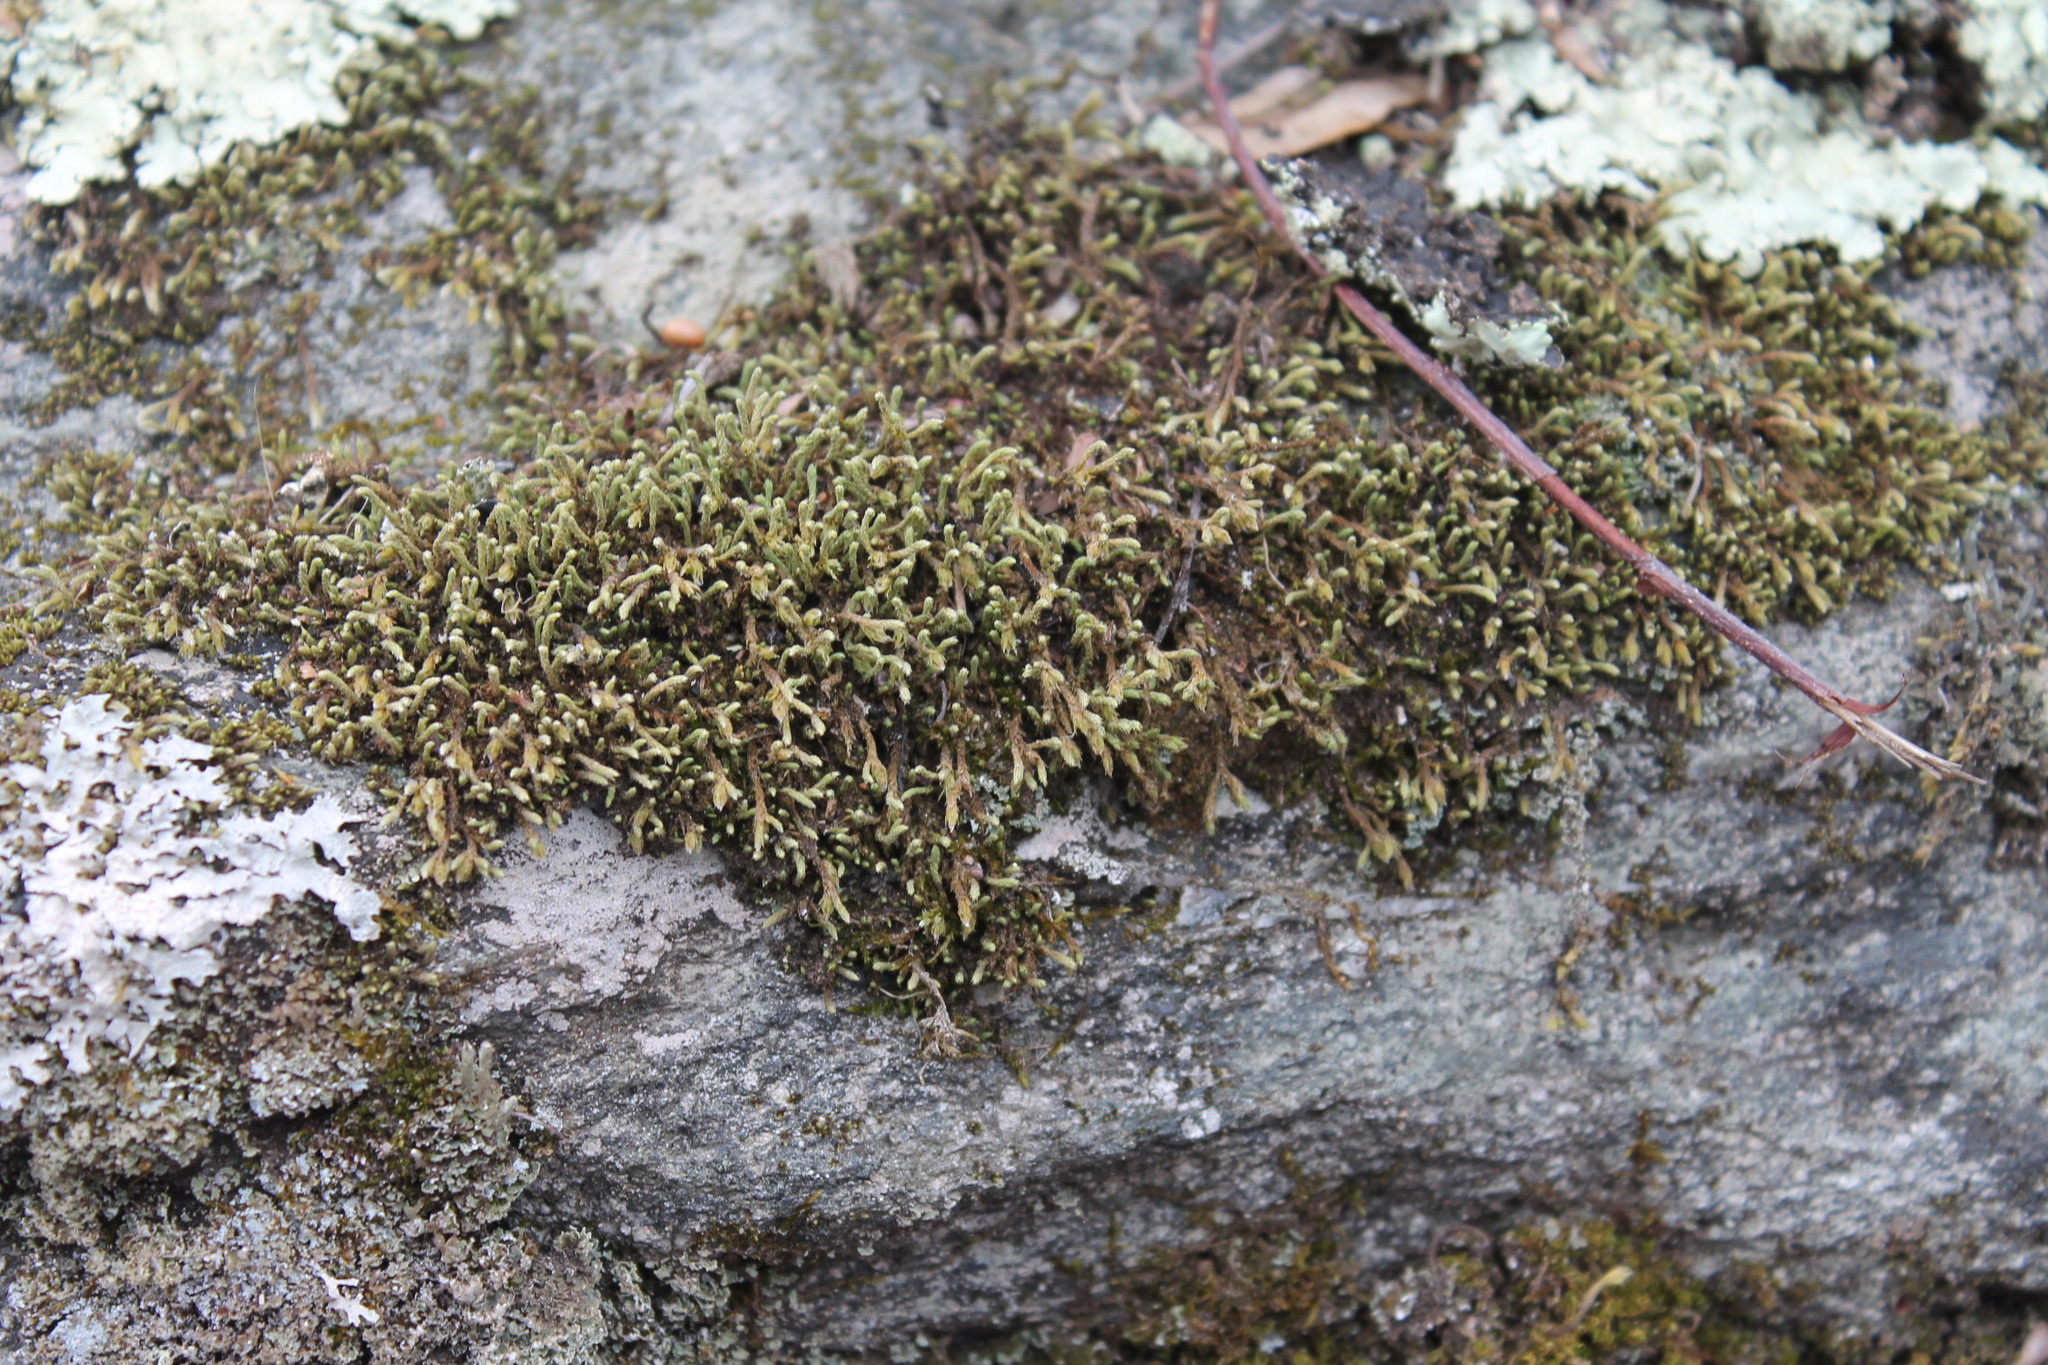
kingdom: Plantae
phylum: Bryophyta
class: Bryopsida
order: Hedwigiales
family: Hedwigiaceae
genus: Hedwigia
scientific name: Hedwigia ciliata
